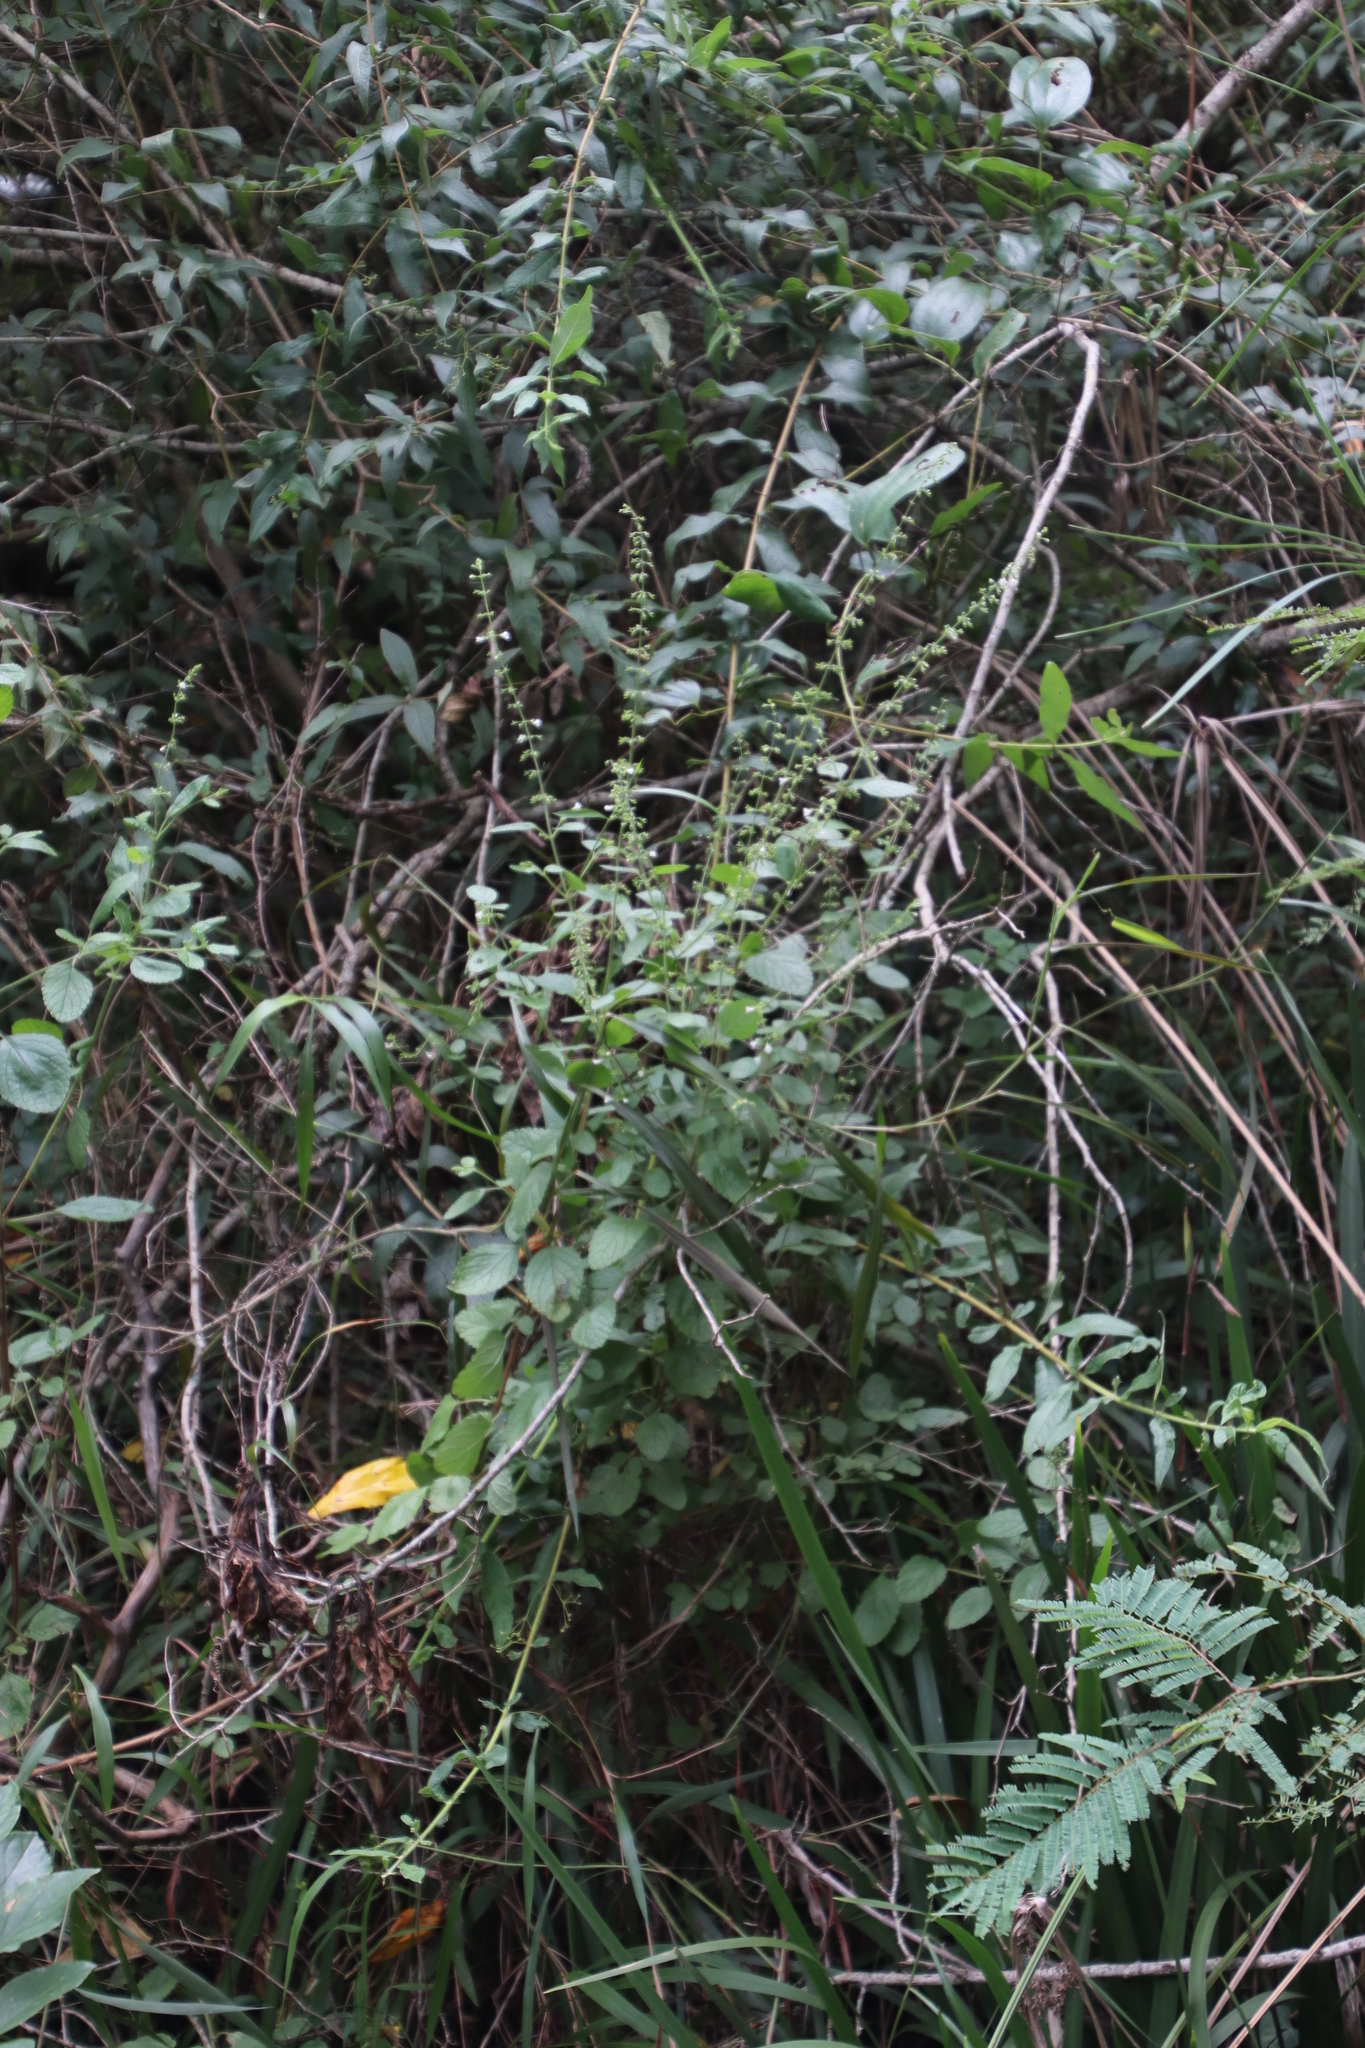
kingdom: Plantae
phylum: Tracheophyta
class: Magnoliopsida
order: Lamiales
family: Lamiaceae
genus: Endostemon
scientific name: Endostemon obtusifolius
